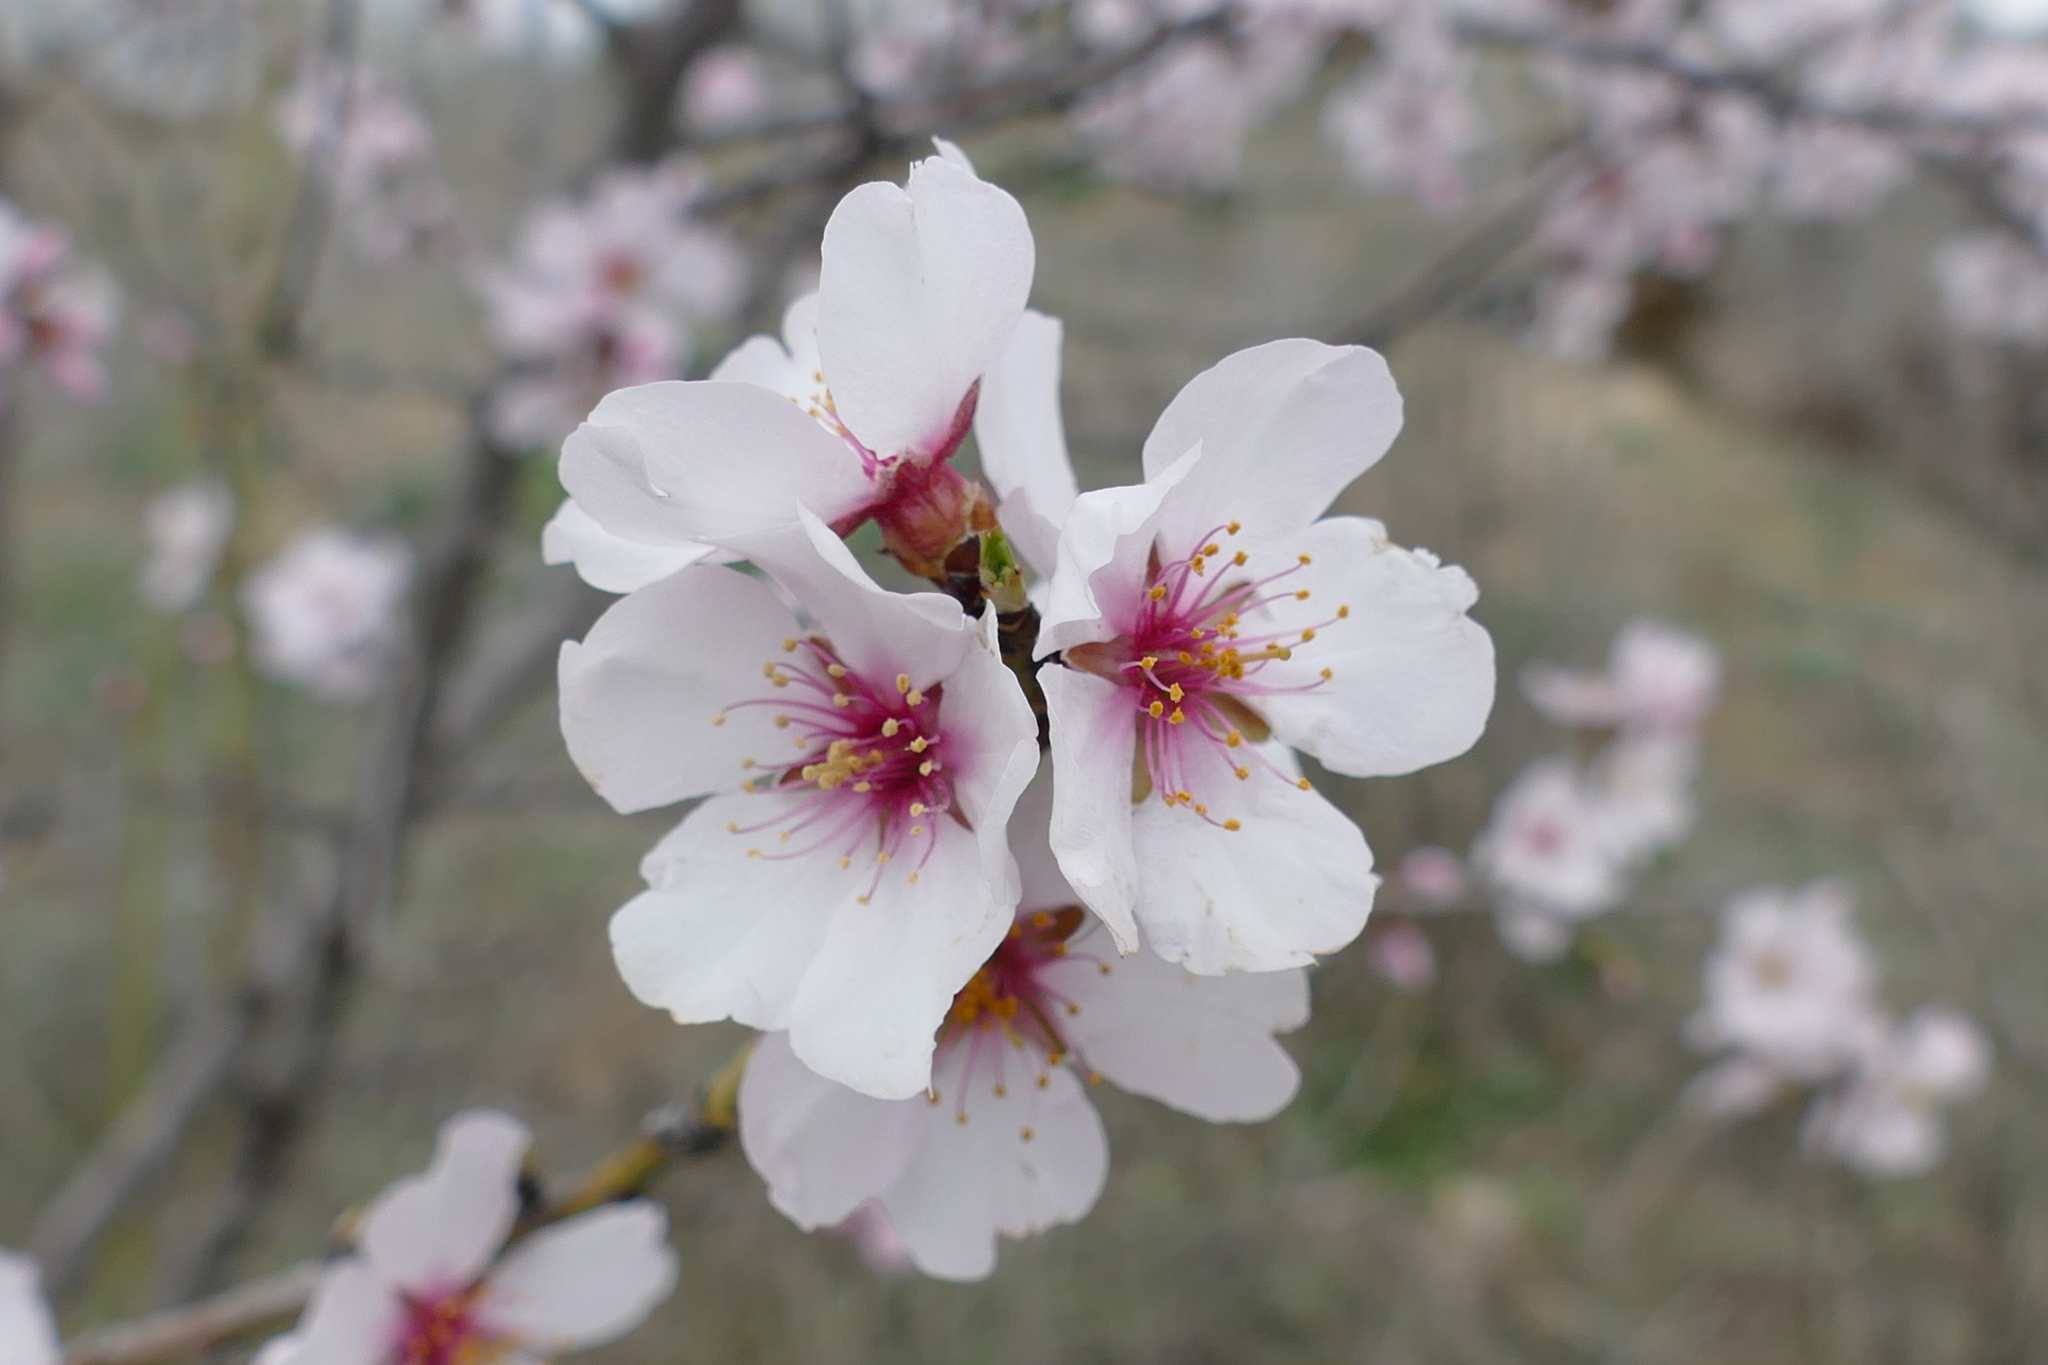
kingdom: Plantae
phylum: Tracheophyta
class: Magnoliopsida
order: Rosales
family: Rosaceae
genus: Prunus
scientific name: Prunus amygdalus
